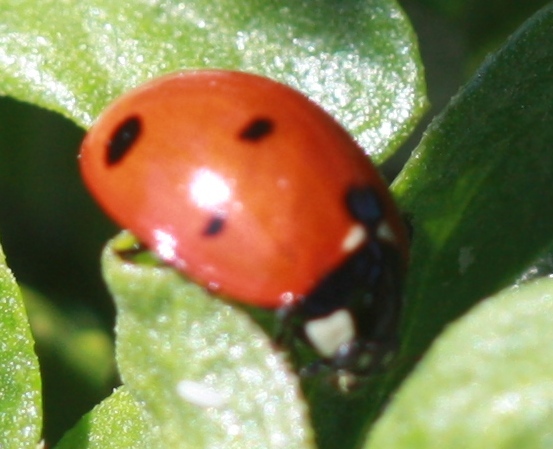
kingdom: Animalia
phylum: Arthropoda
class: Insecta
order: Coleoptera
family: Coccinellidae
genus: Coccinella
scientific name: Coccinella septempunctata
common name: Sevenspotted lady beetle
